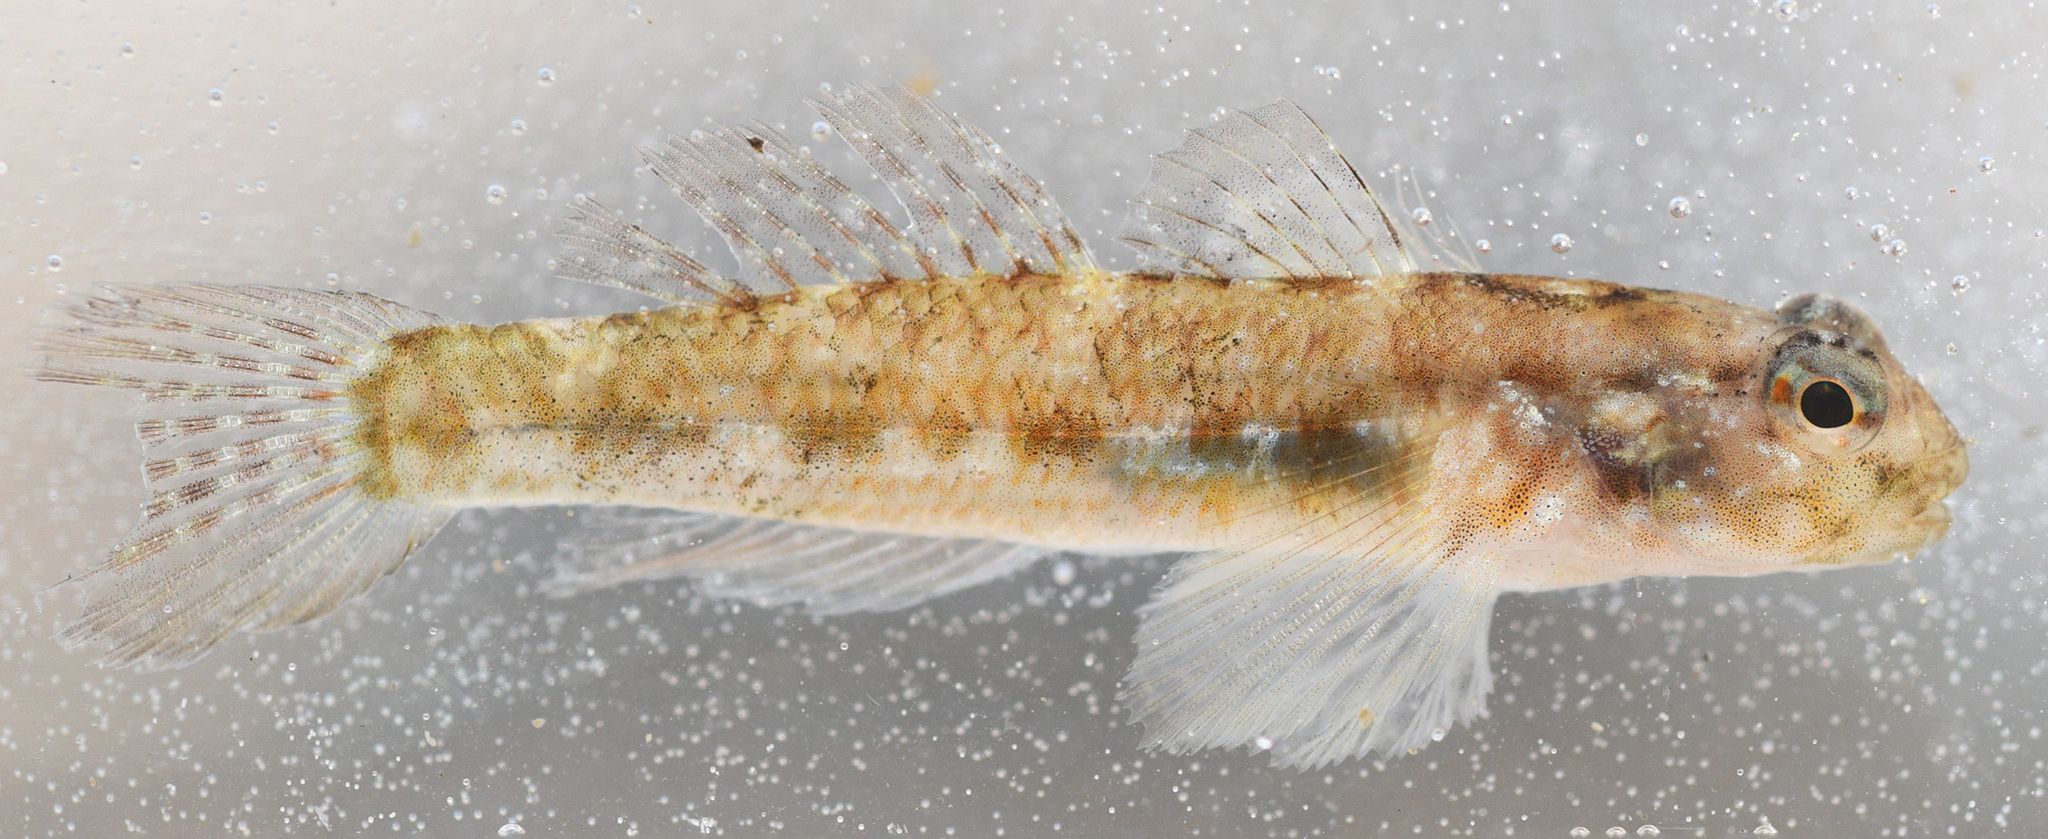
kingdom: Animalia
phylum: Chordata
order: Perciformes
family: Gobiidae
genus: Bathygobius
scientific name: Bathygobius cocosensis
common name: Cocos frillgoby
